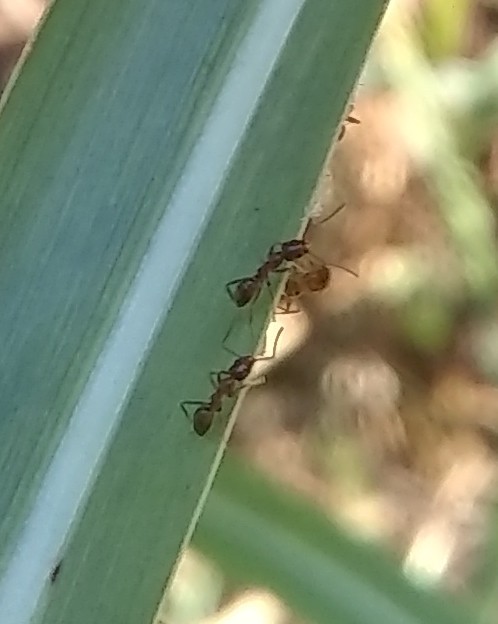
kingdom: Animalia
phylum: Arthropoda
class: Insecta
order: Hymenoptera
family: Formicidae
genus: Linepithema
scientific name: Linepithema humile
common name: Argentine ant
